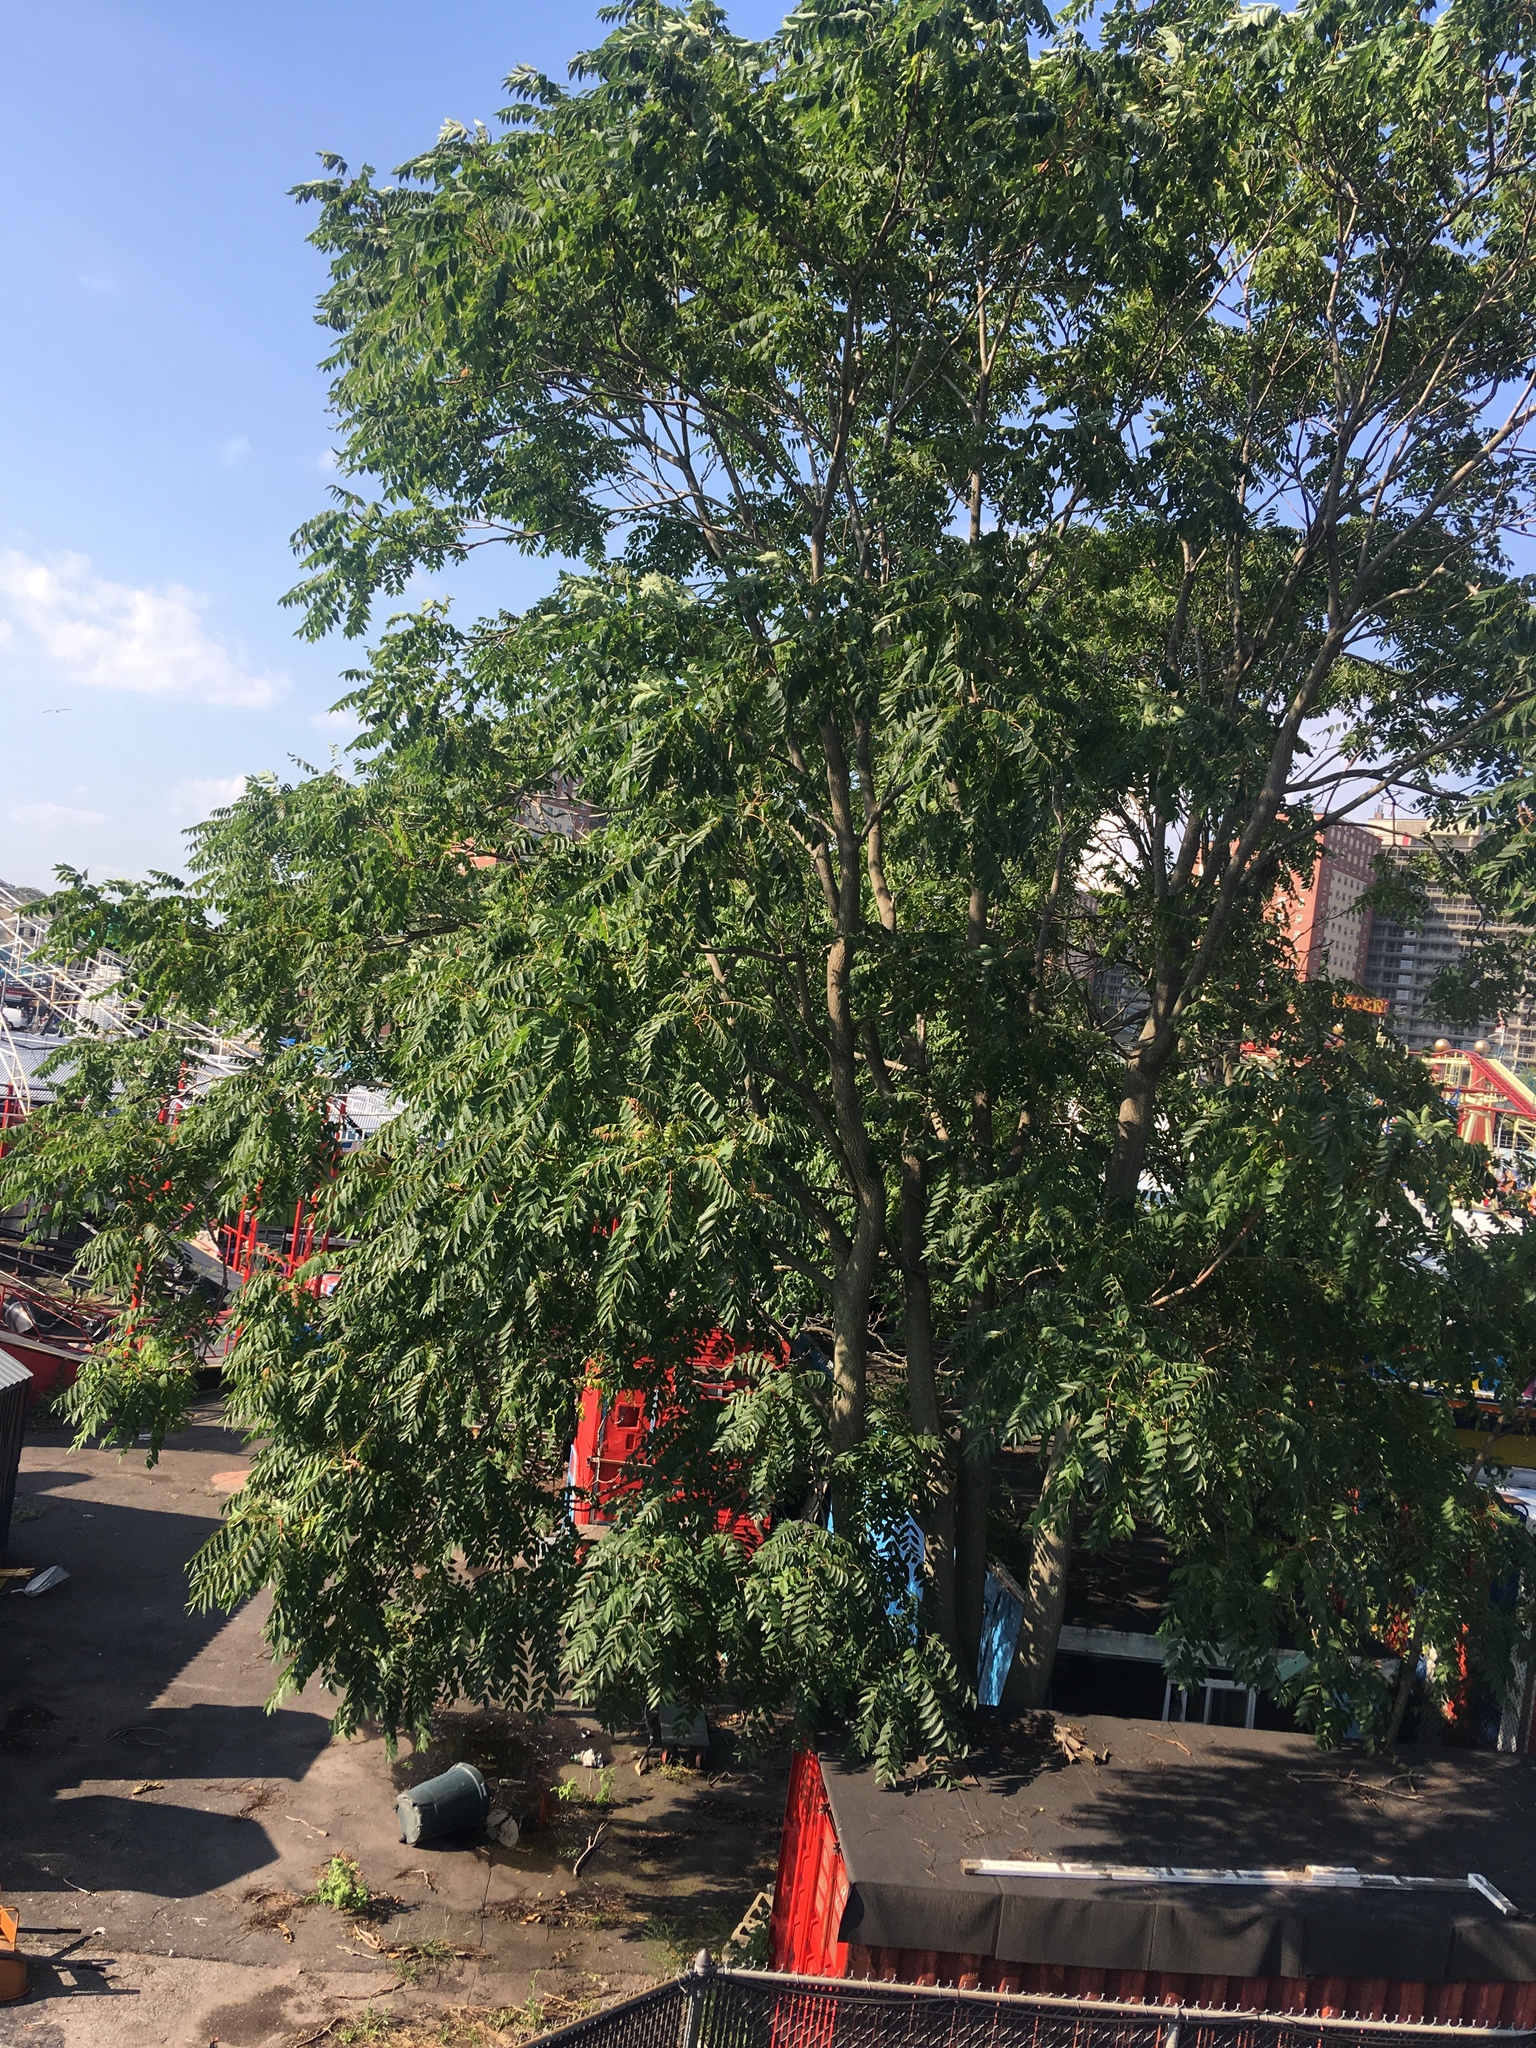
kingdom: Plantae
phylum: Tracheophyta
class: Magnoliopsida
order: Sapindales
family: Simaroubaceae
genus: Ailanthus
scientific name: Ailanthus altissima
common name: Tree-of-heaven
